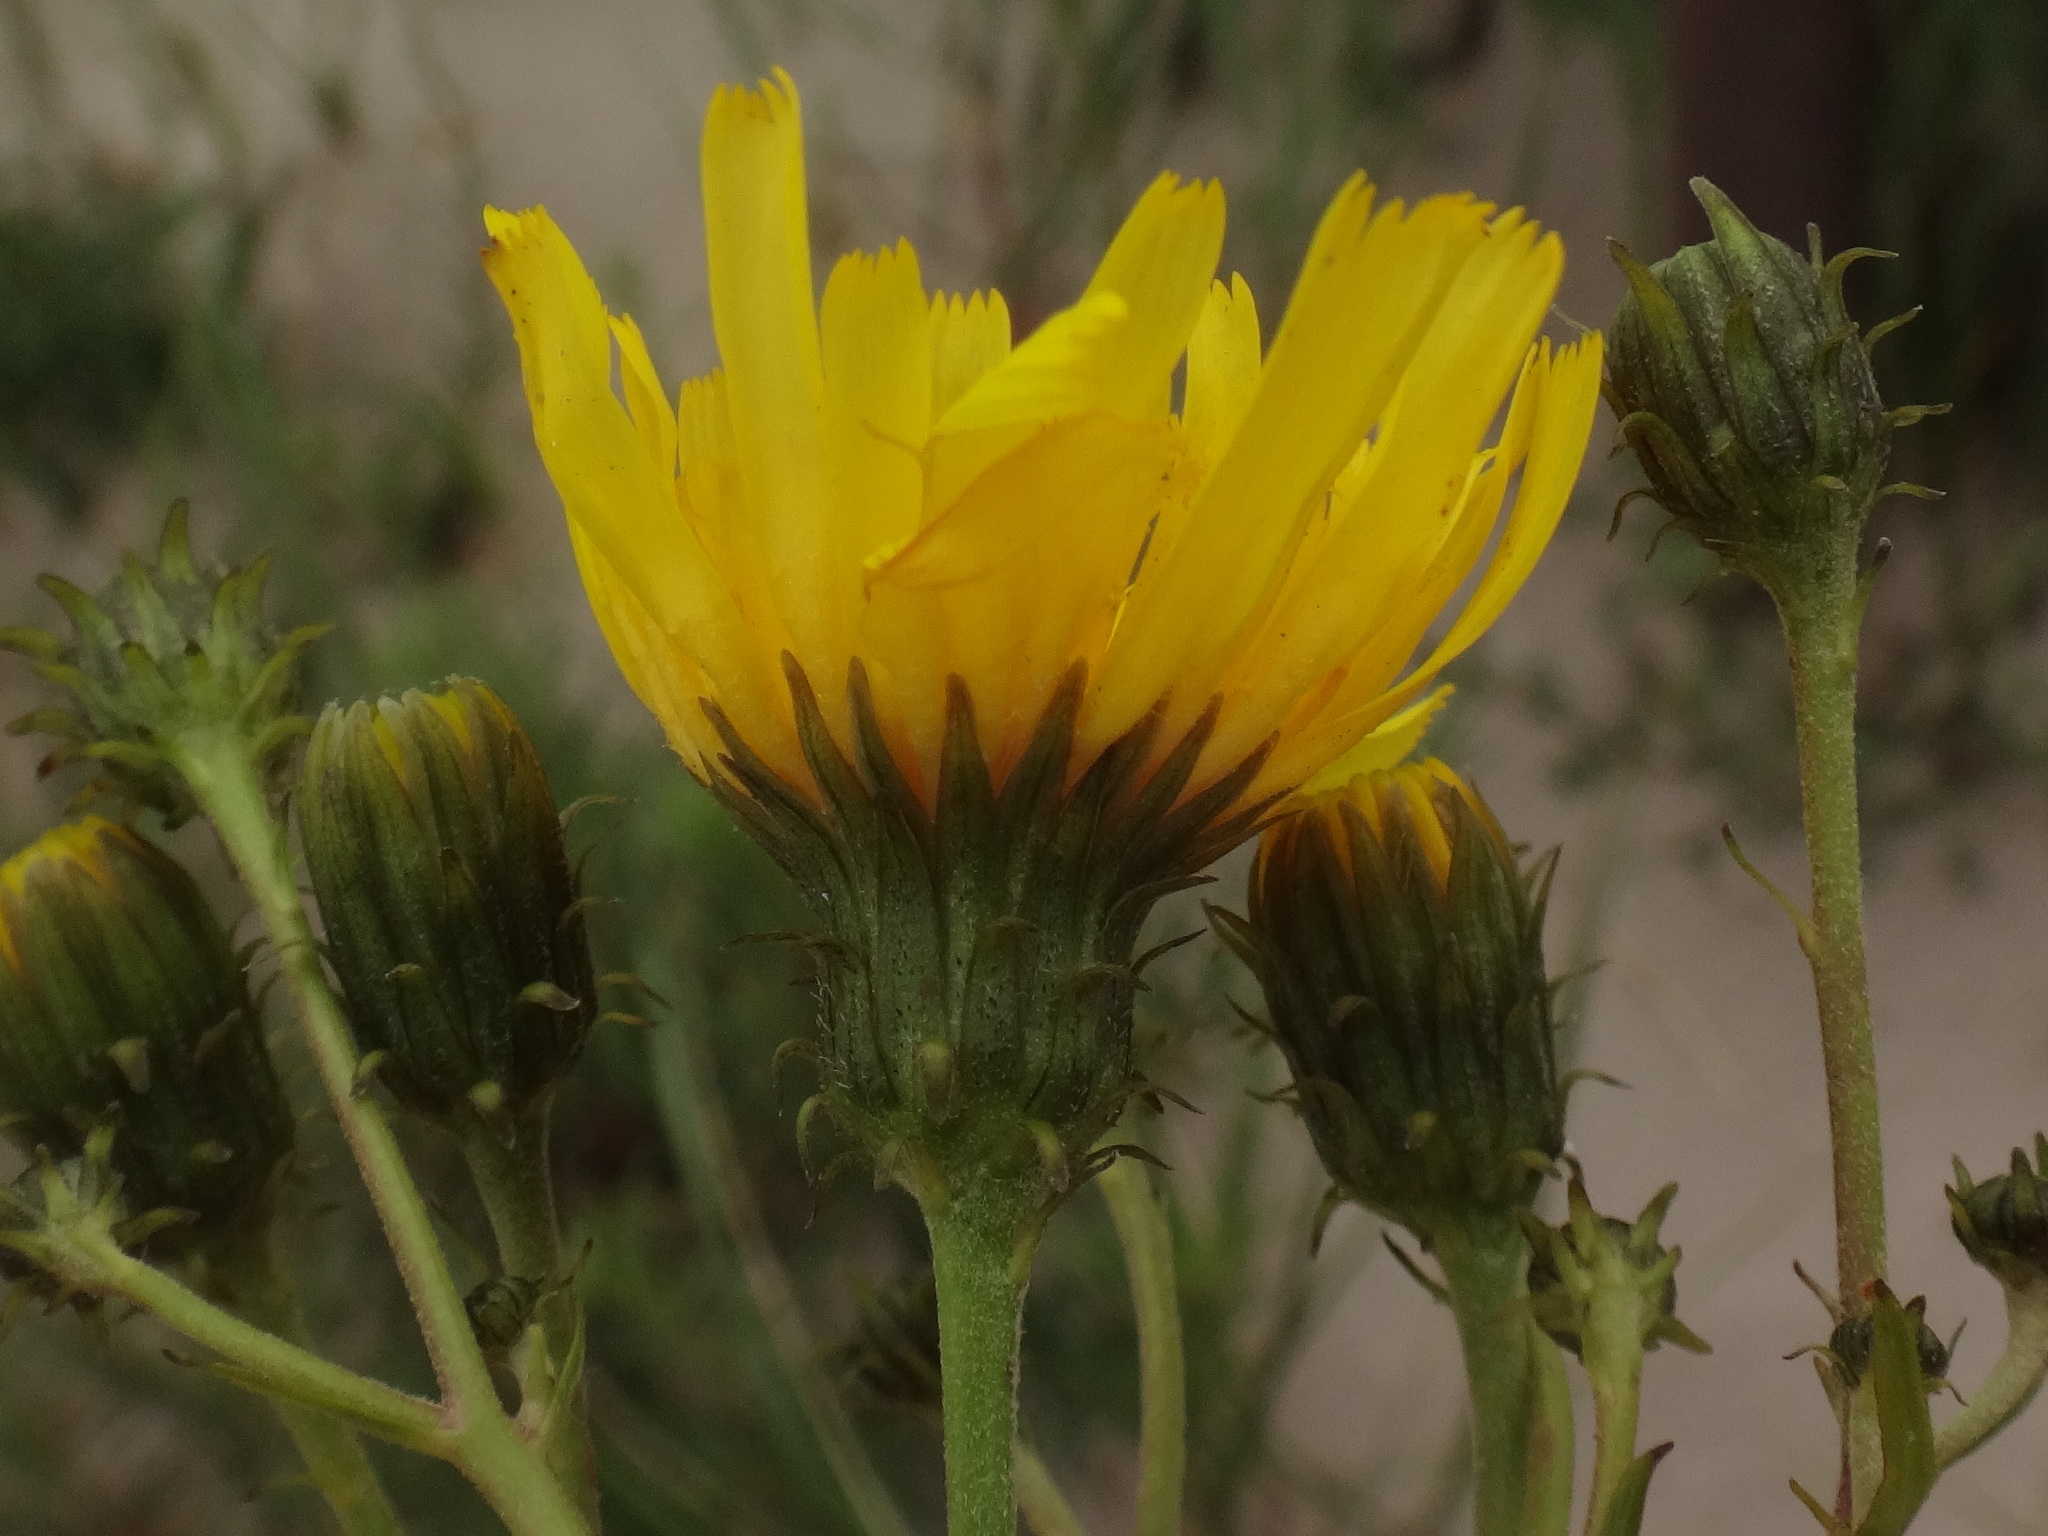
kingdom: Plantae
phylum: Tracheophyta
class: Magnoliopsida
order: Asterales
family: Asteraceae
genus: Hieracium
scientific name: Hieracium umbellatum
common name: Northern hawkweed
